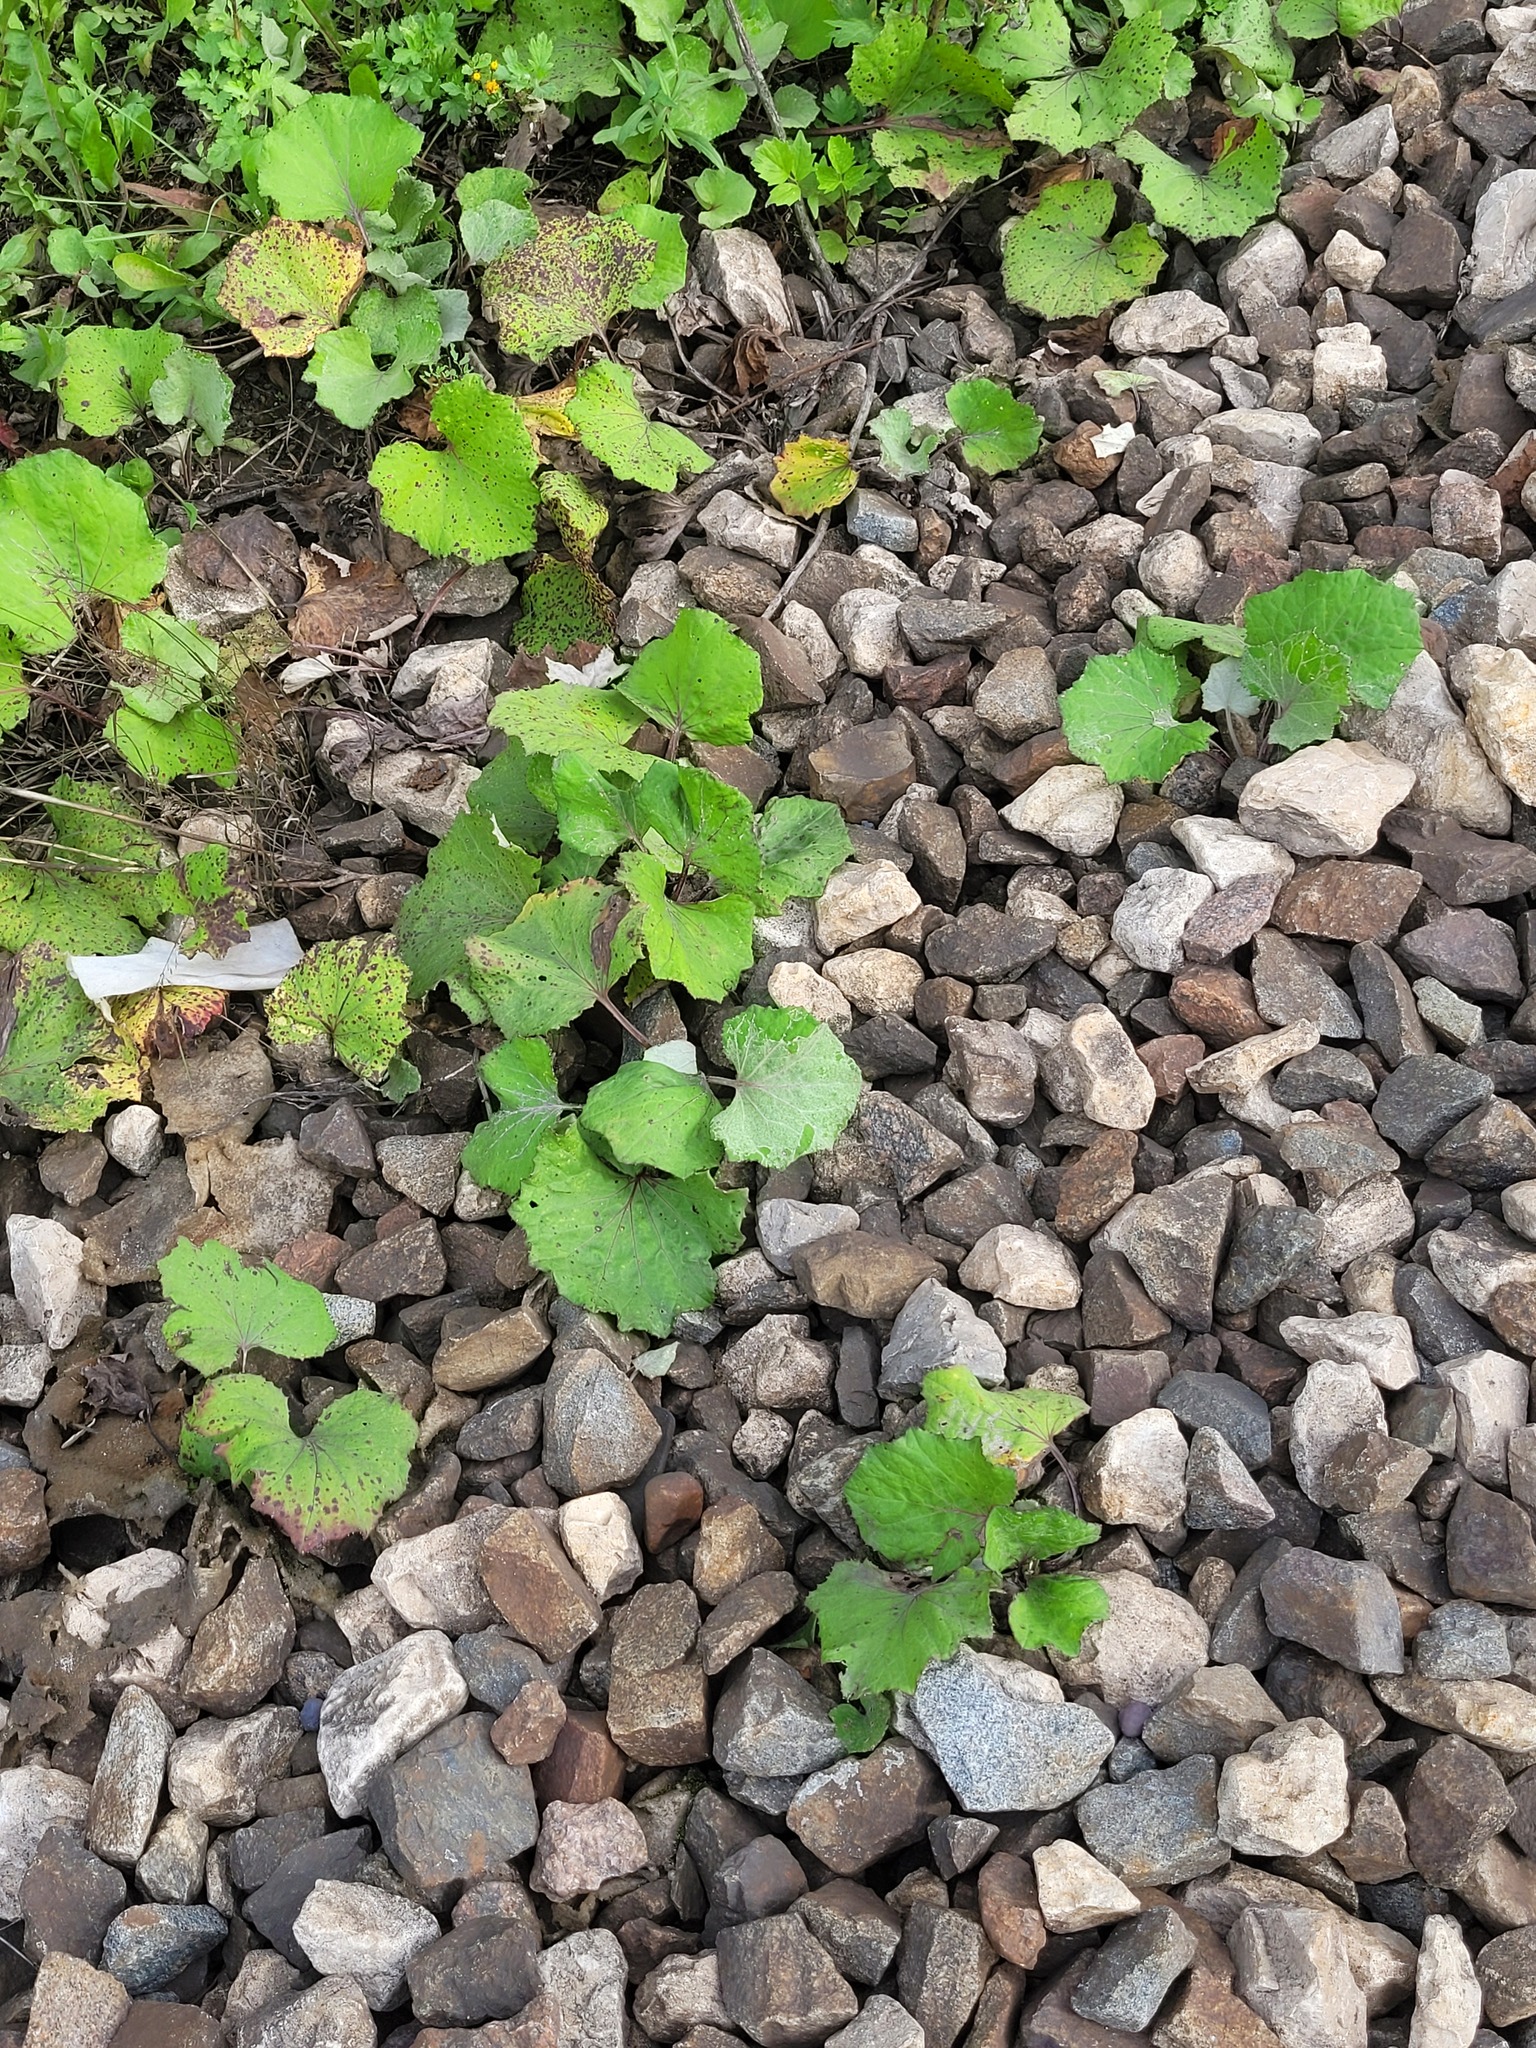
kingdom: Plantae
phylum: Tracheophyta
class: Magnoliopsida
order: Asterales
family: Asteraceae
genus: Tussilago
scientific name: Tussilago farfara
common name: Coltsfoot
